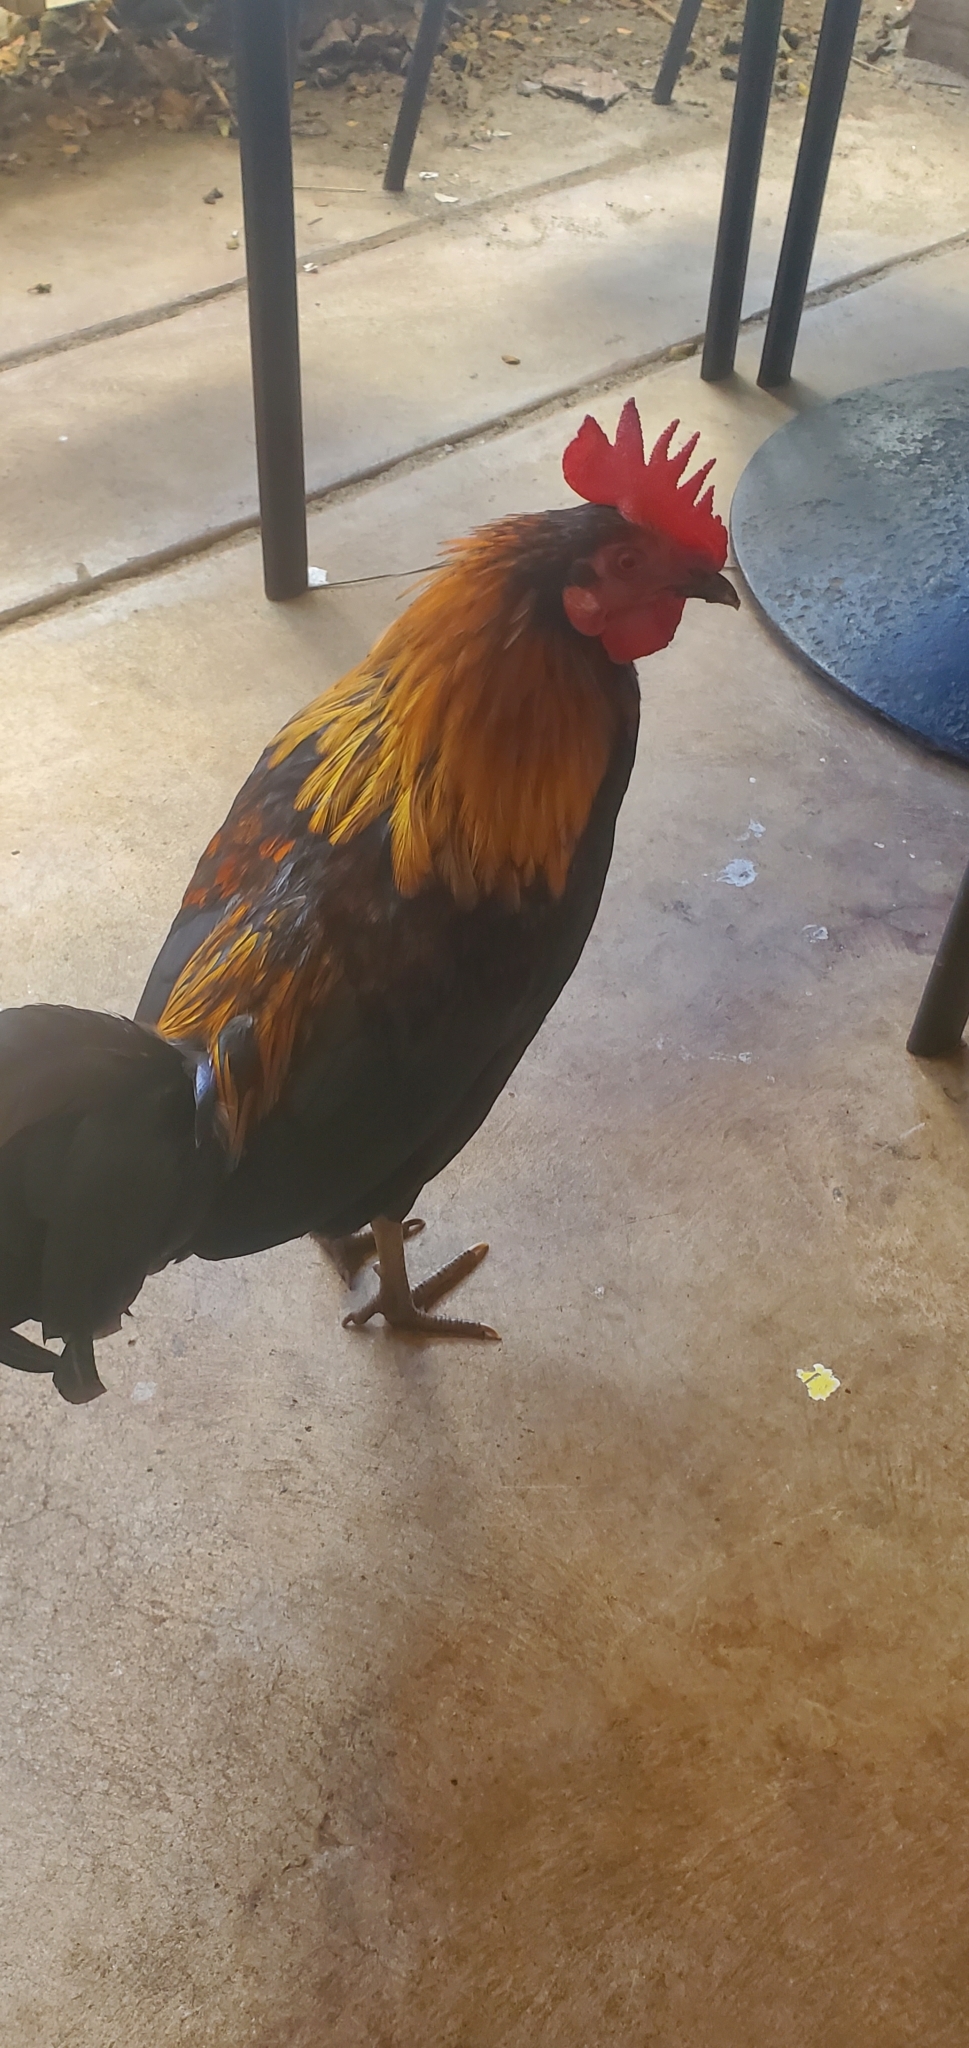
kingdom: Animalia
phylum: Chordata
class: Aves
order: Galliformes
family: Phasianidae
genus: Gallus
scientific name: Gallus gallus
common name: Red junglefowl
